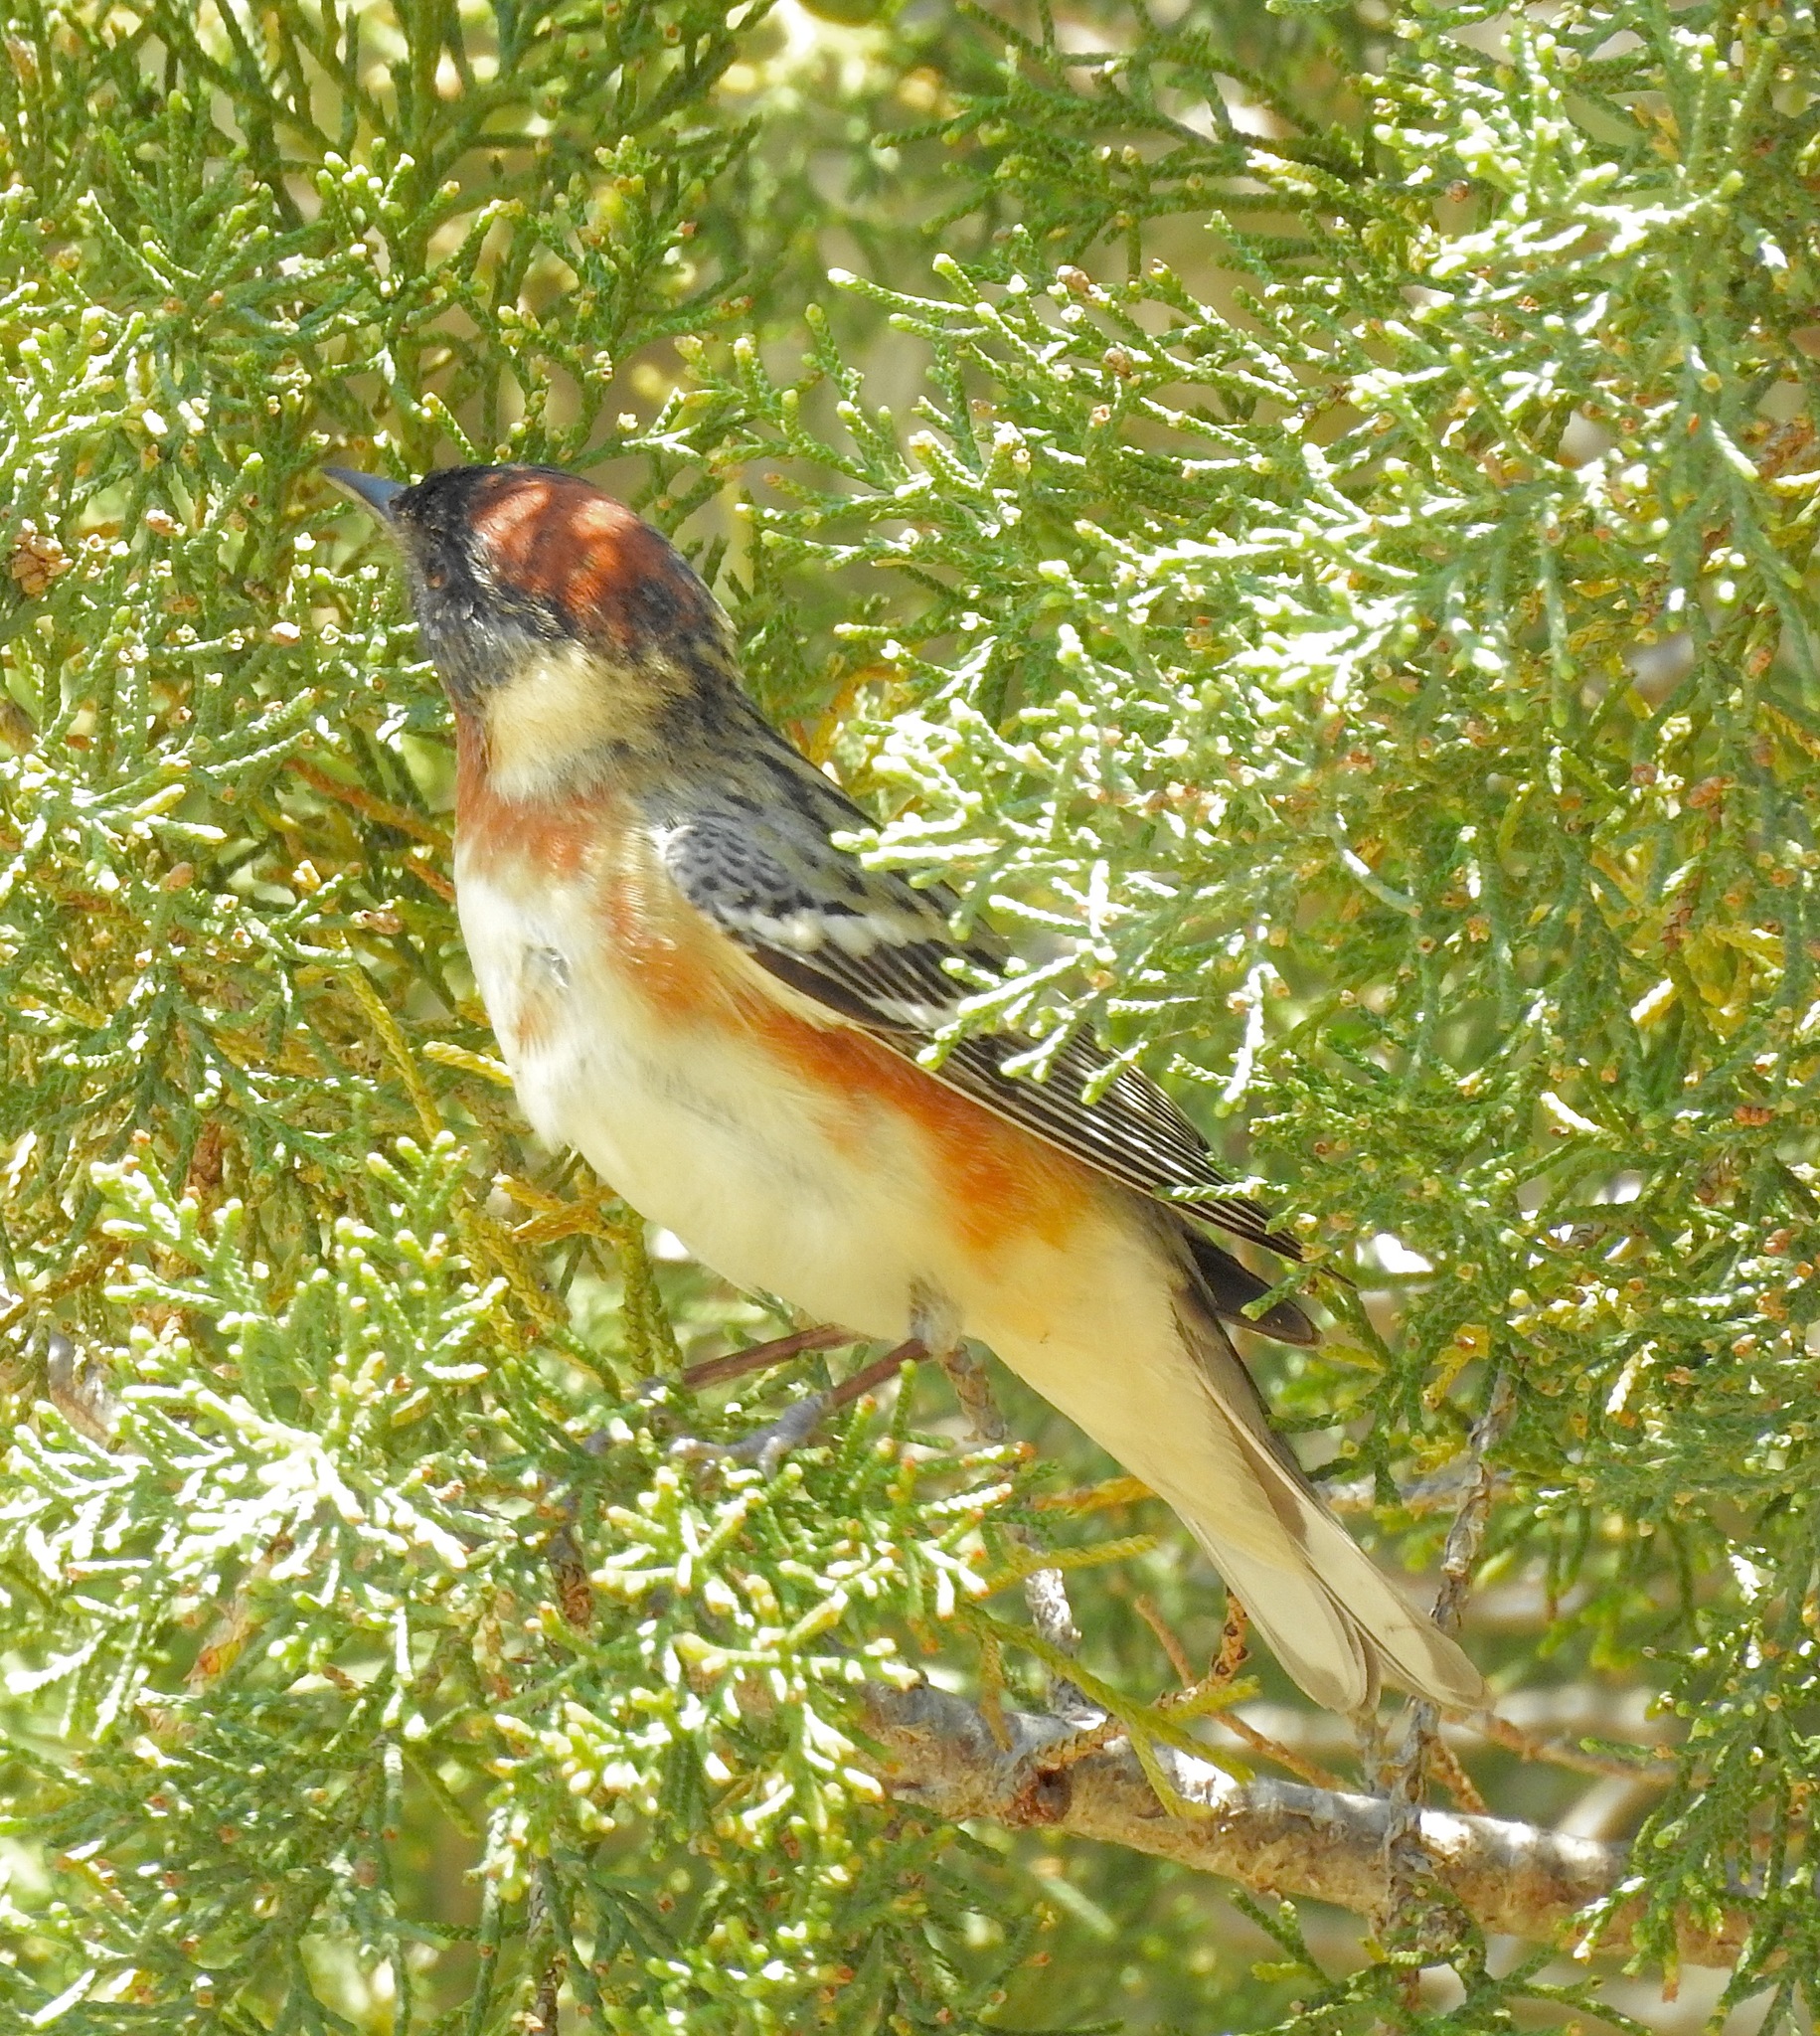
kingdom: Animalia
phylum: Chordata
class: Aves
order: Passeriformes
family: Parulidae
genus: Setophaga
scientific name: Setophaga castanea
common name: Bay-breasted warbler
